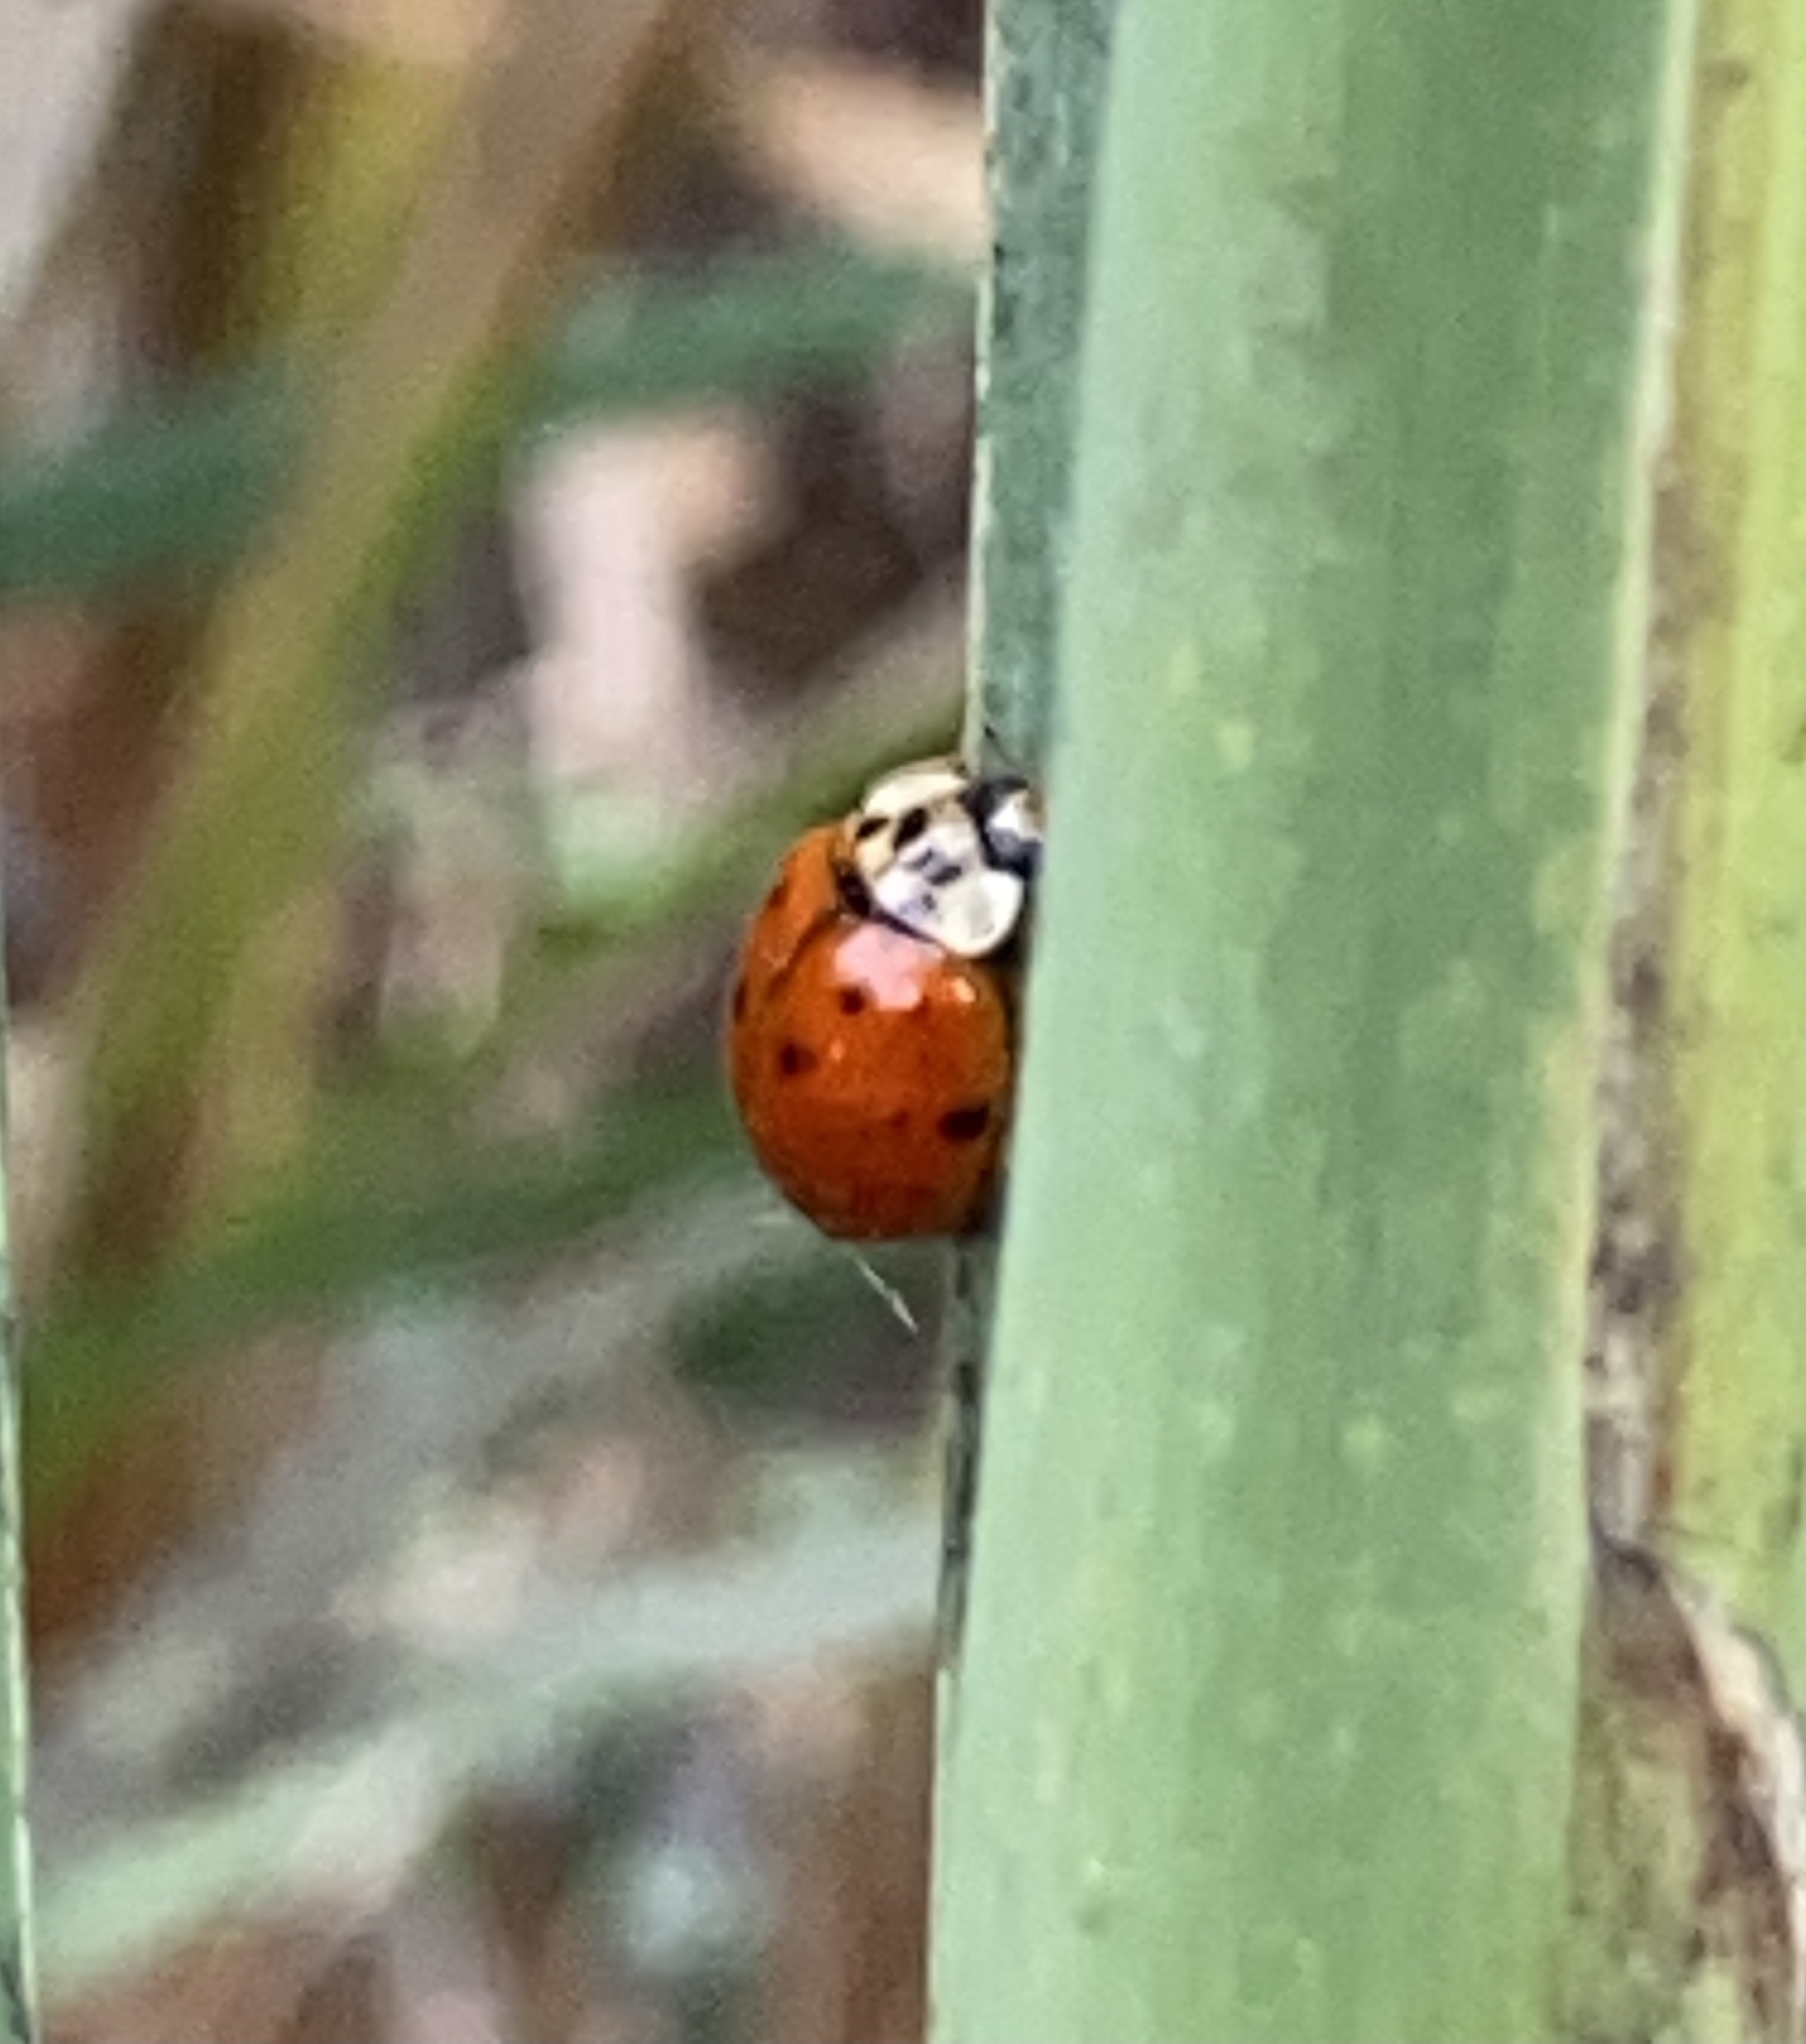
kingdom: Animalia
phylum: Arthropoda
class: Insecta
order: Coleoptera
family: Coccinellidae
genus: Harmonia
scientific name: Harmonia axyridis
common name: Harlequin ladybird
